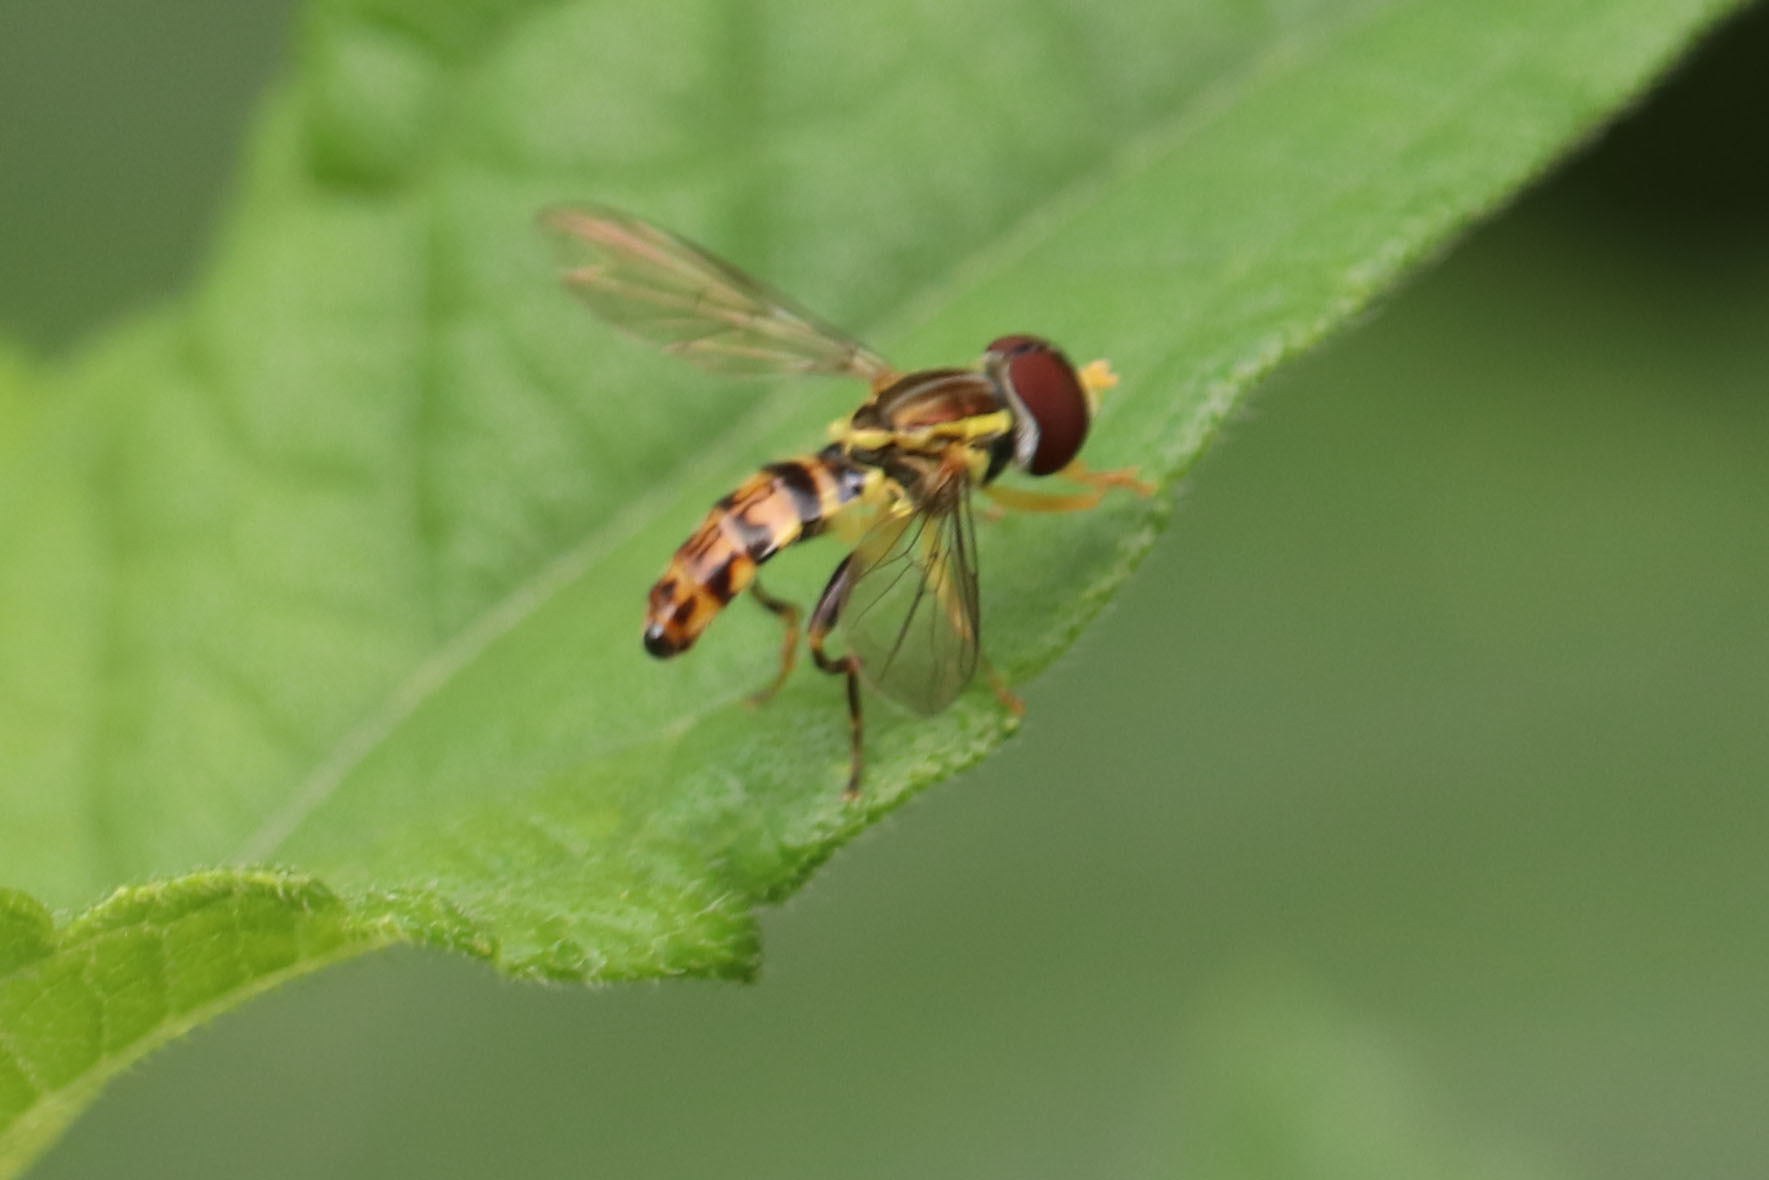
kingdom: Animalia
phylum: Arthropoda
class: Insecta
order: Diptera
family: Syrphidae
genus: Toxomerus
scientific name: Toxomerus geminatus
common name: Eastern calligrapher
